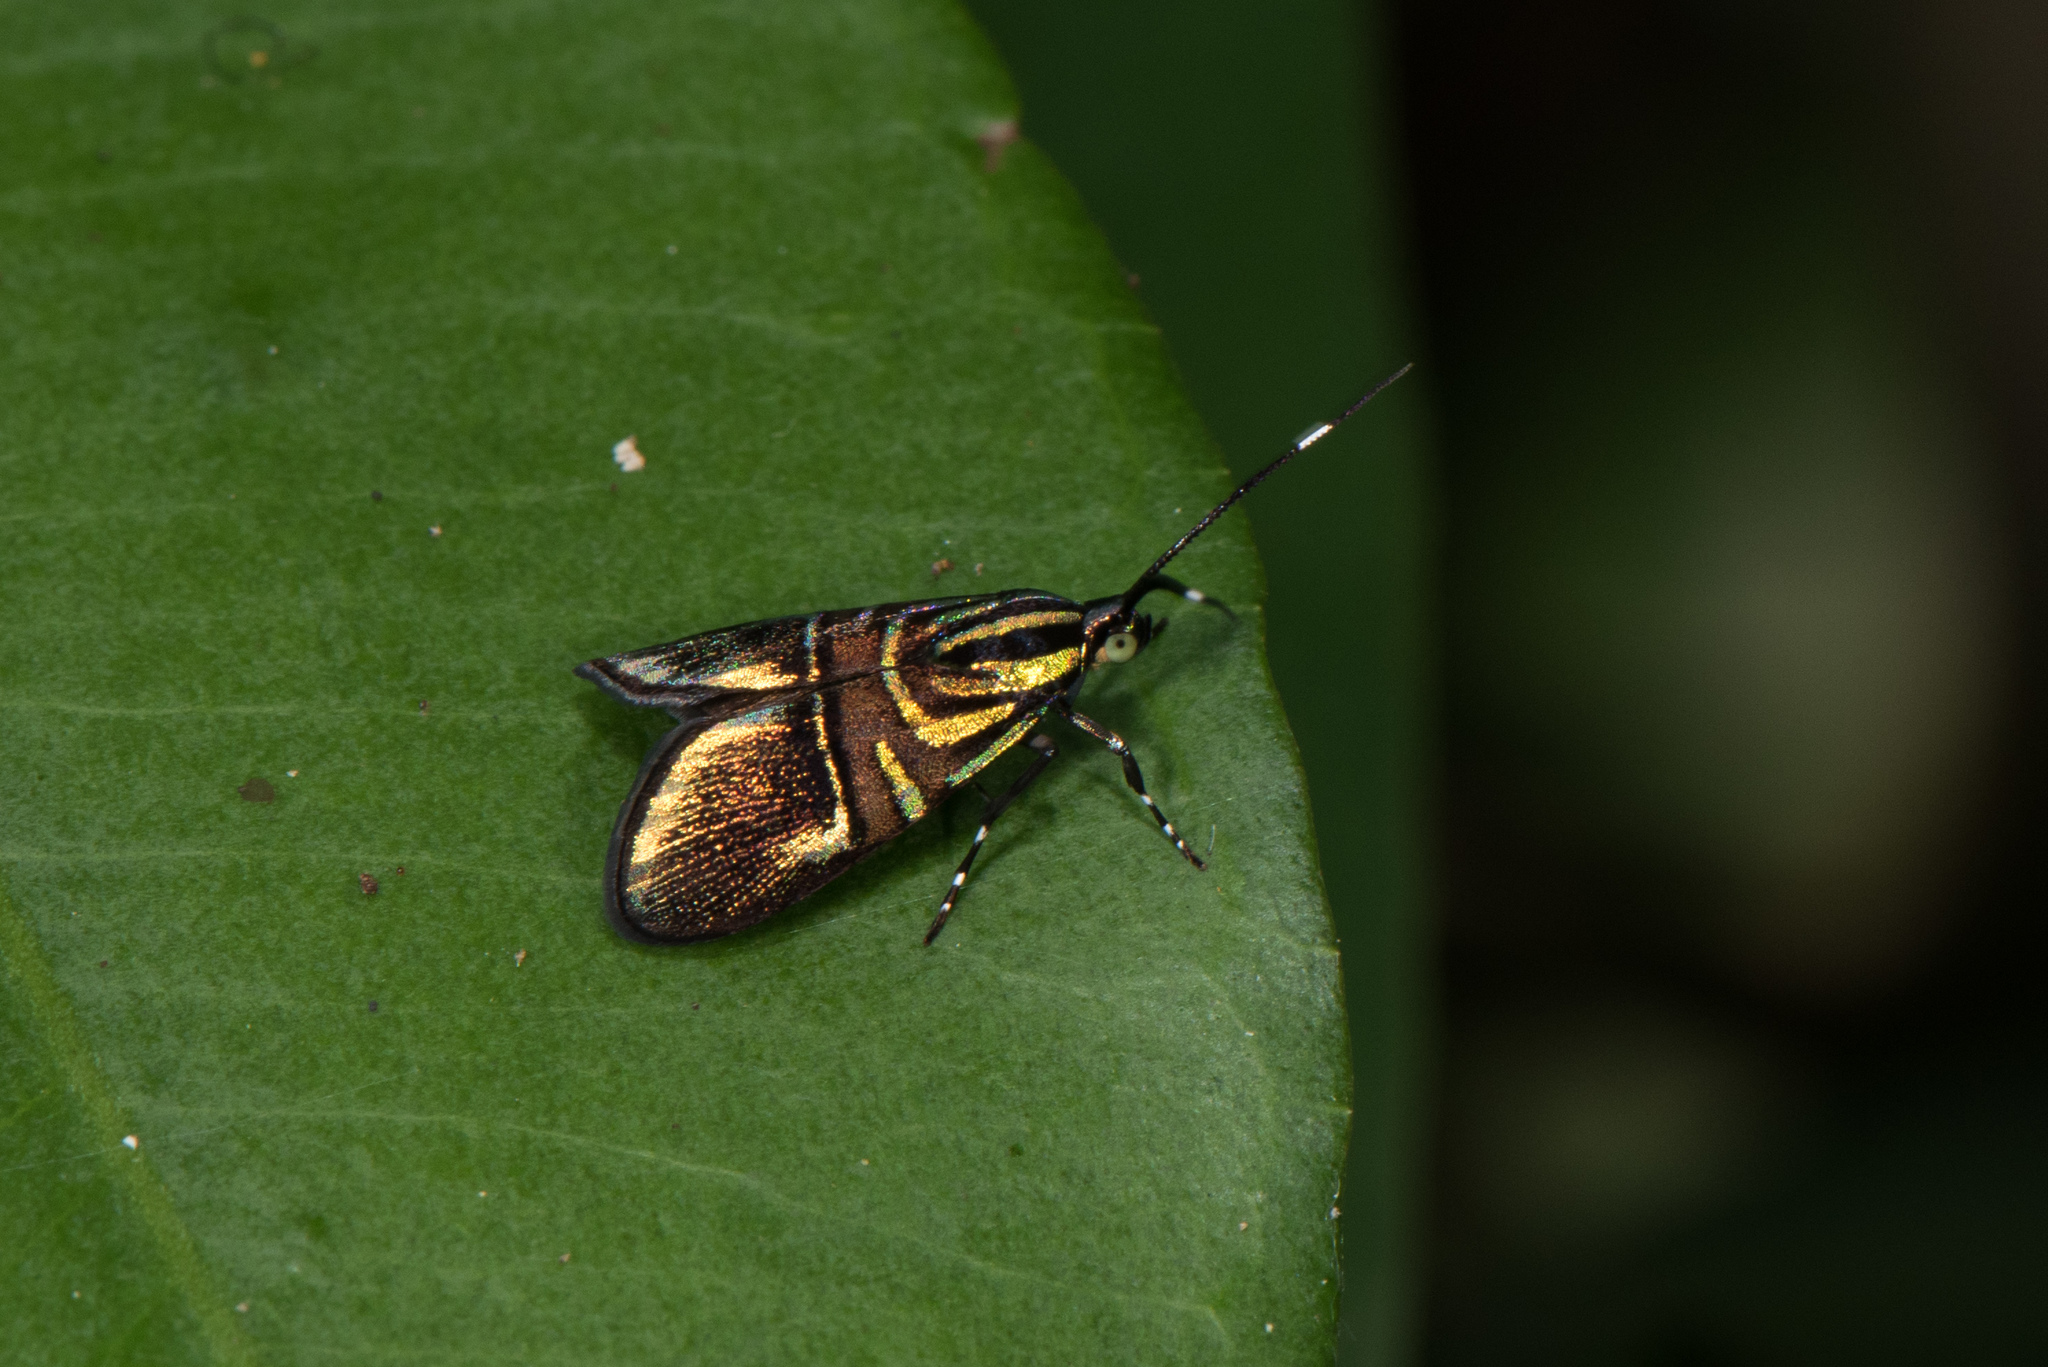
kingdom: Animalia
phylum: Arthropoda
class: Insecta
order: Lepidoptera
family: Choreutidae
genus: Saptha
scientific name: Saptha divitiosa
